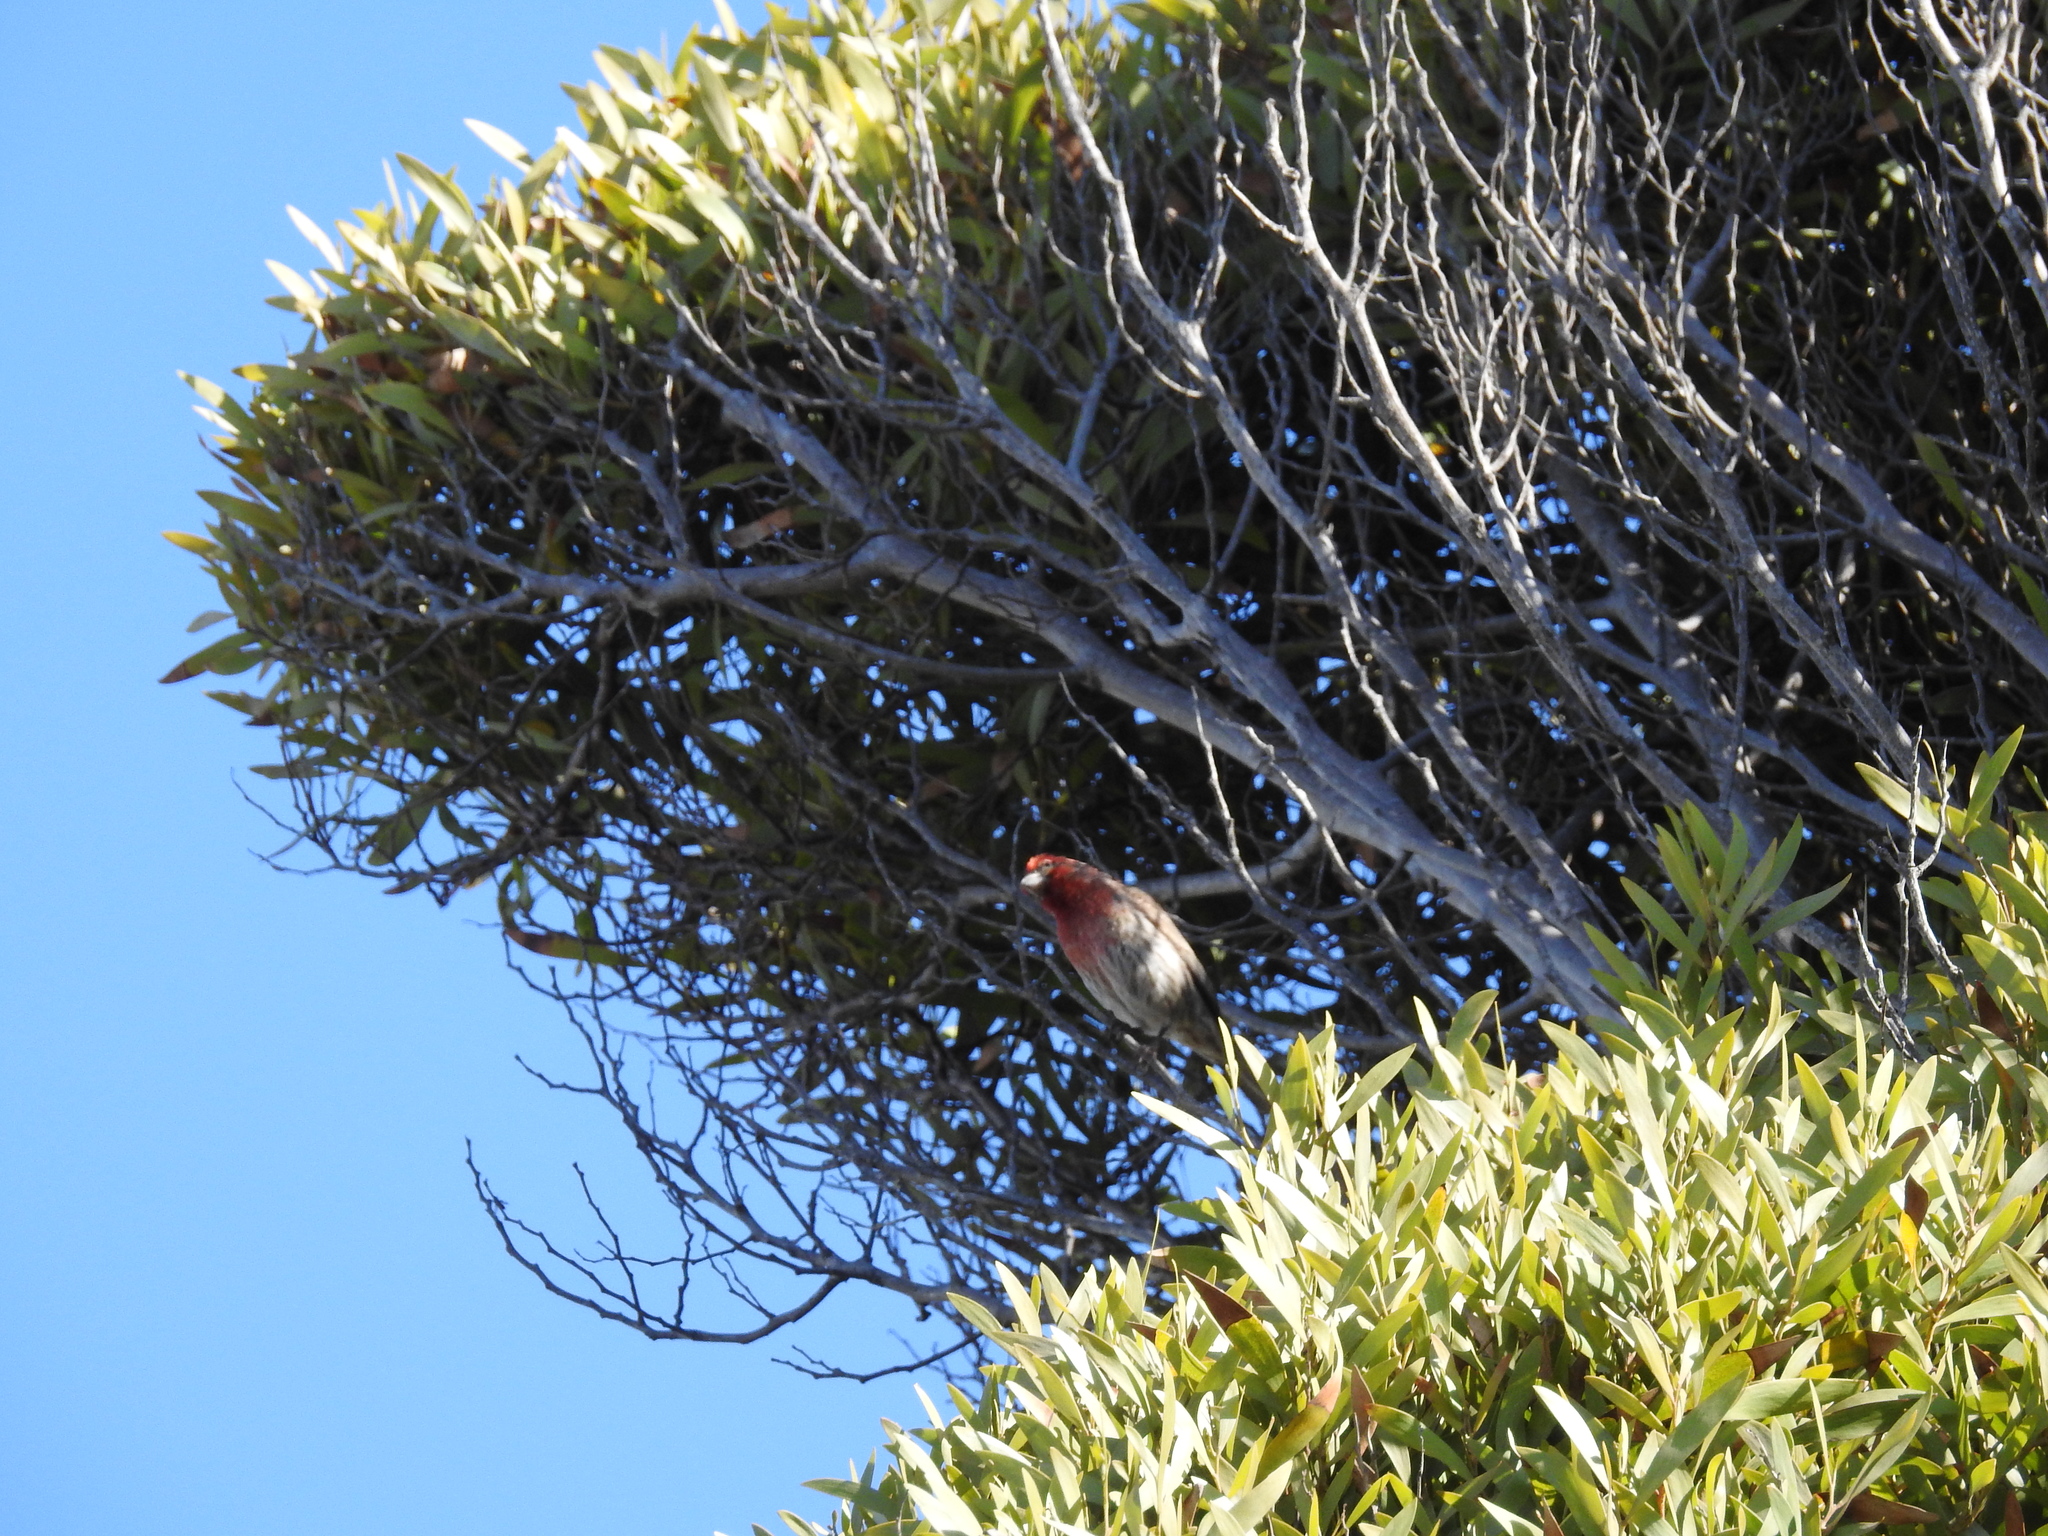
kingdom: Animalia
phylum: Chordata
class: Aves
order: Passeriformes
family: Fringillidae
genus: Haemorhous
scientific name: Haemorhous mexicanus
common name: House finch
